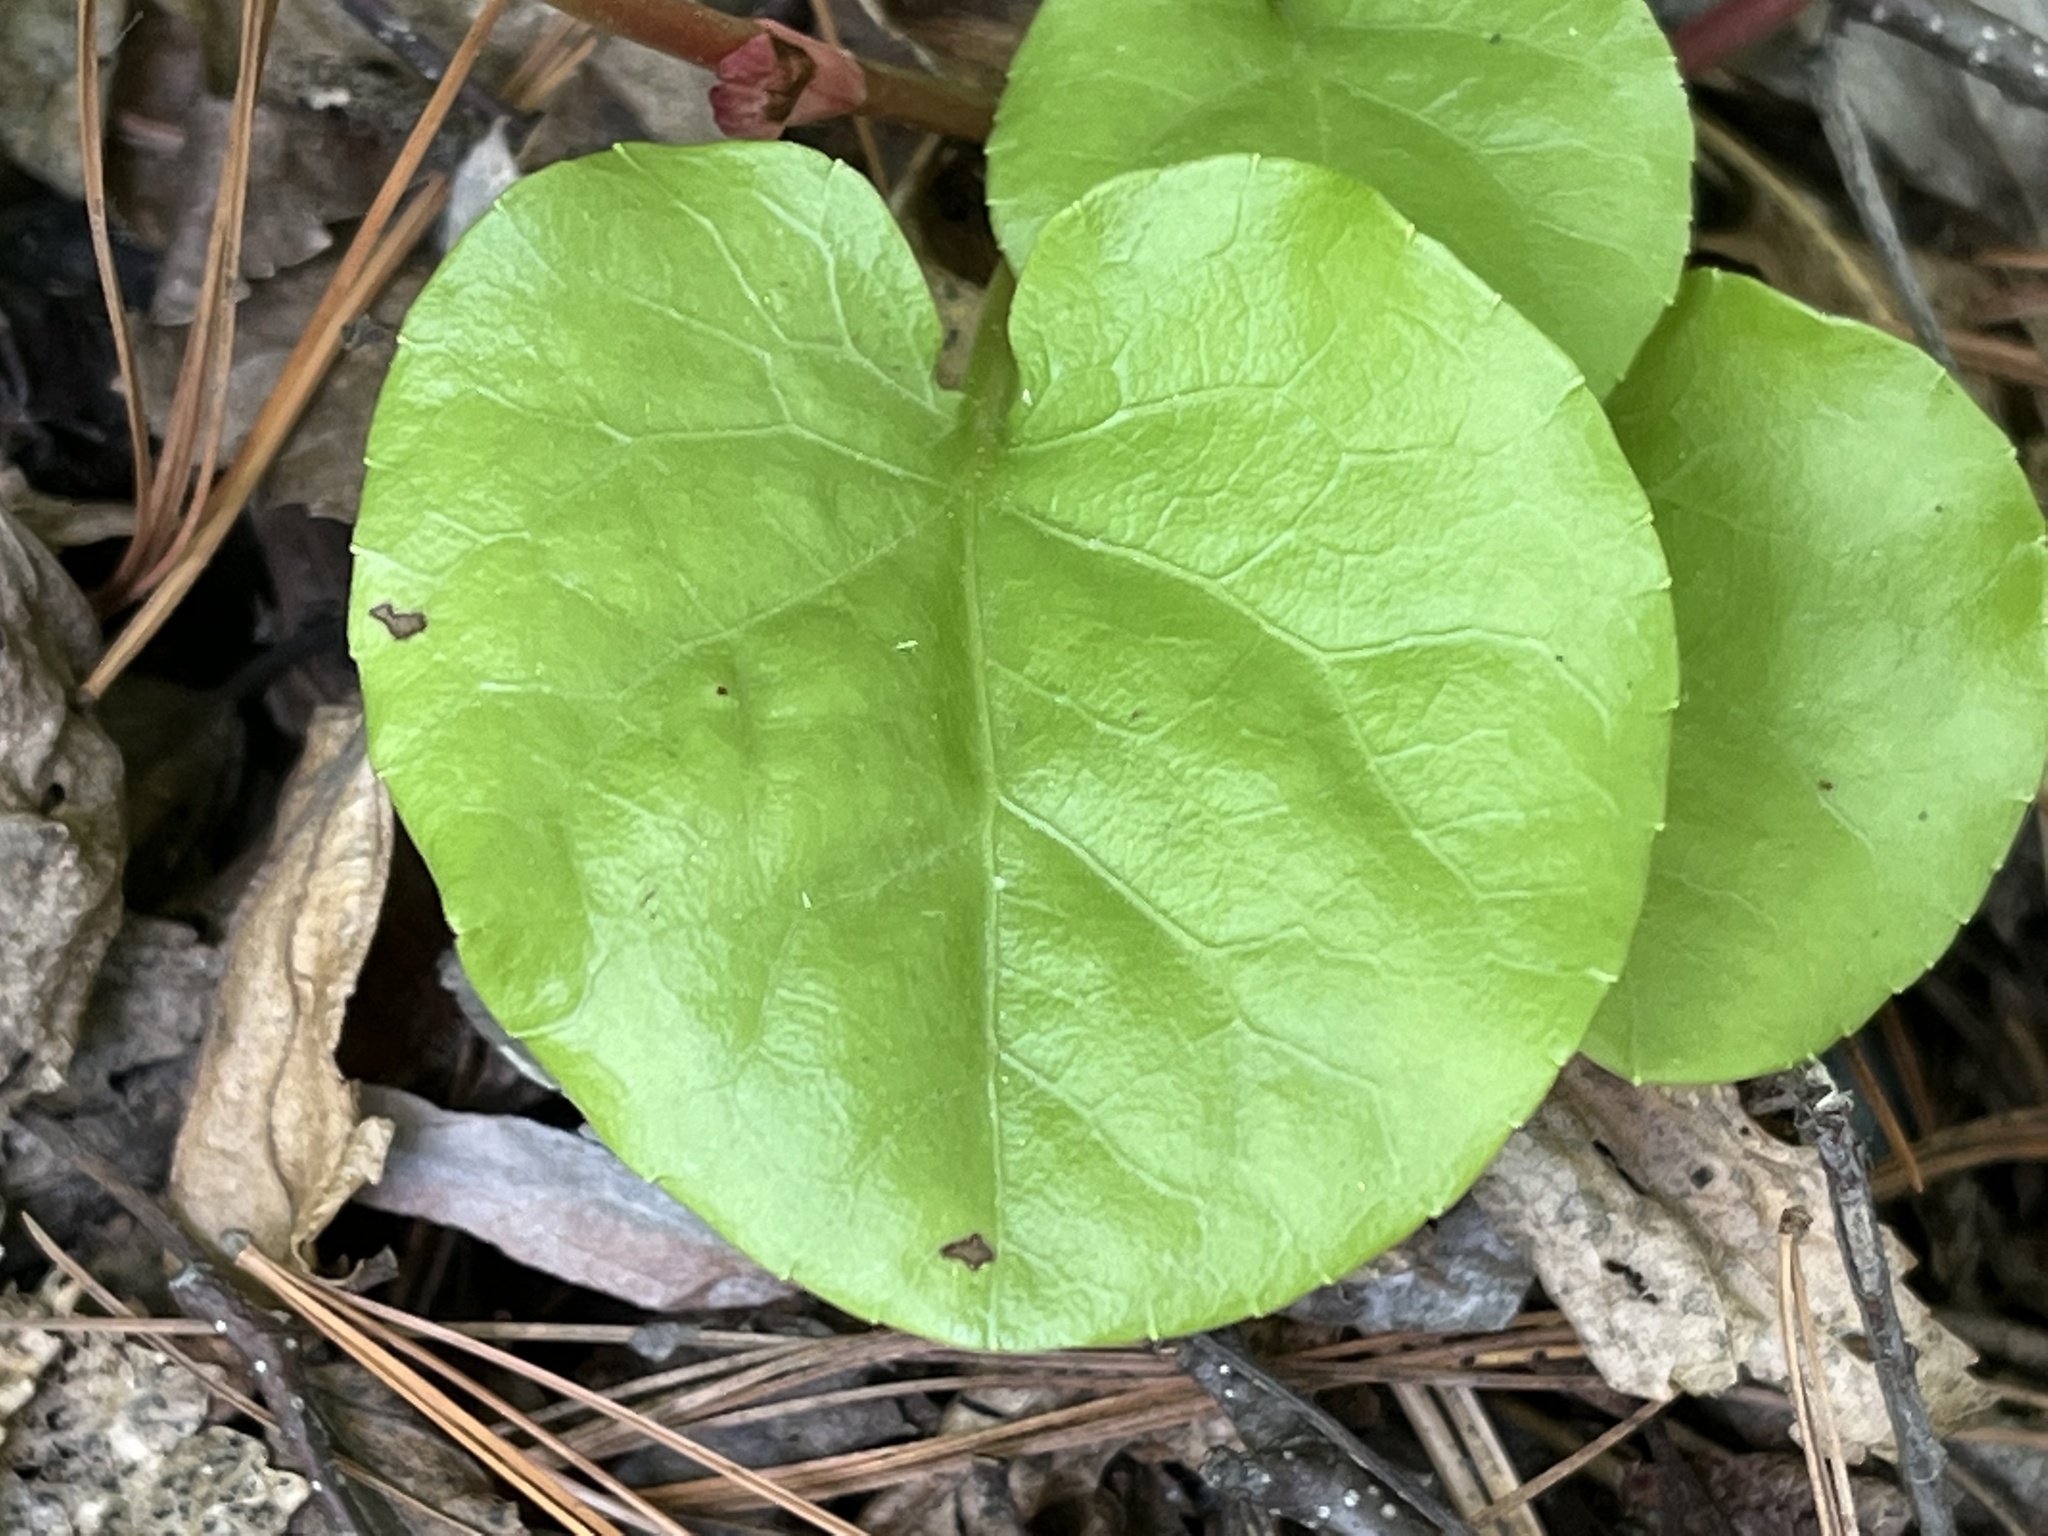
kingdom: Plantae
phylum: Tracheophyta
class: Magnoliopsida
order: Ericales
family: Ericaceae
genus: Pyrola
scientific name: Pyrola asarifolia
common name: Bog wintergreen
